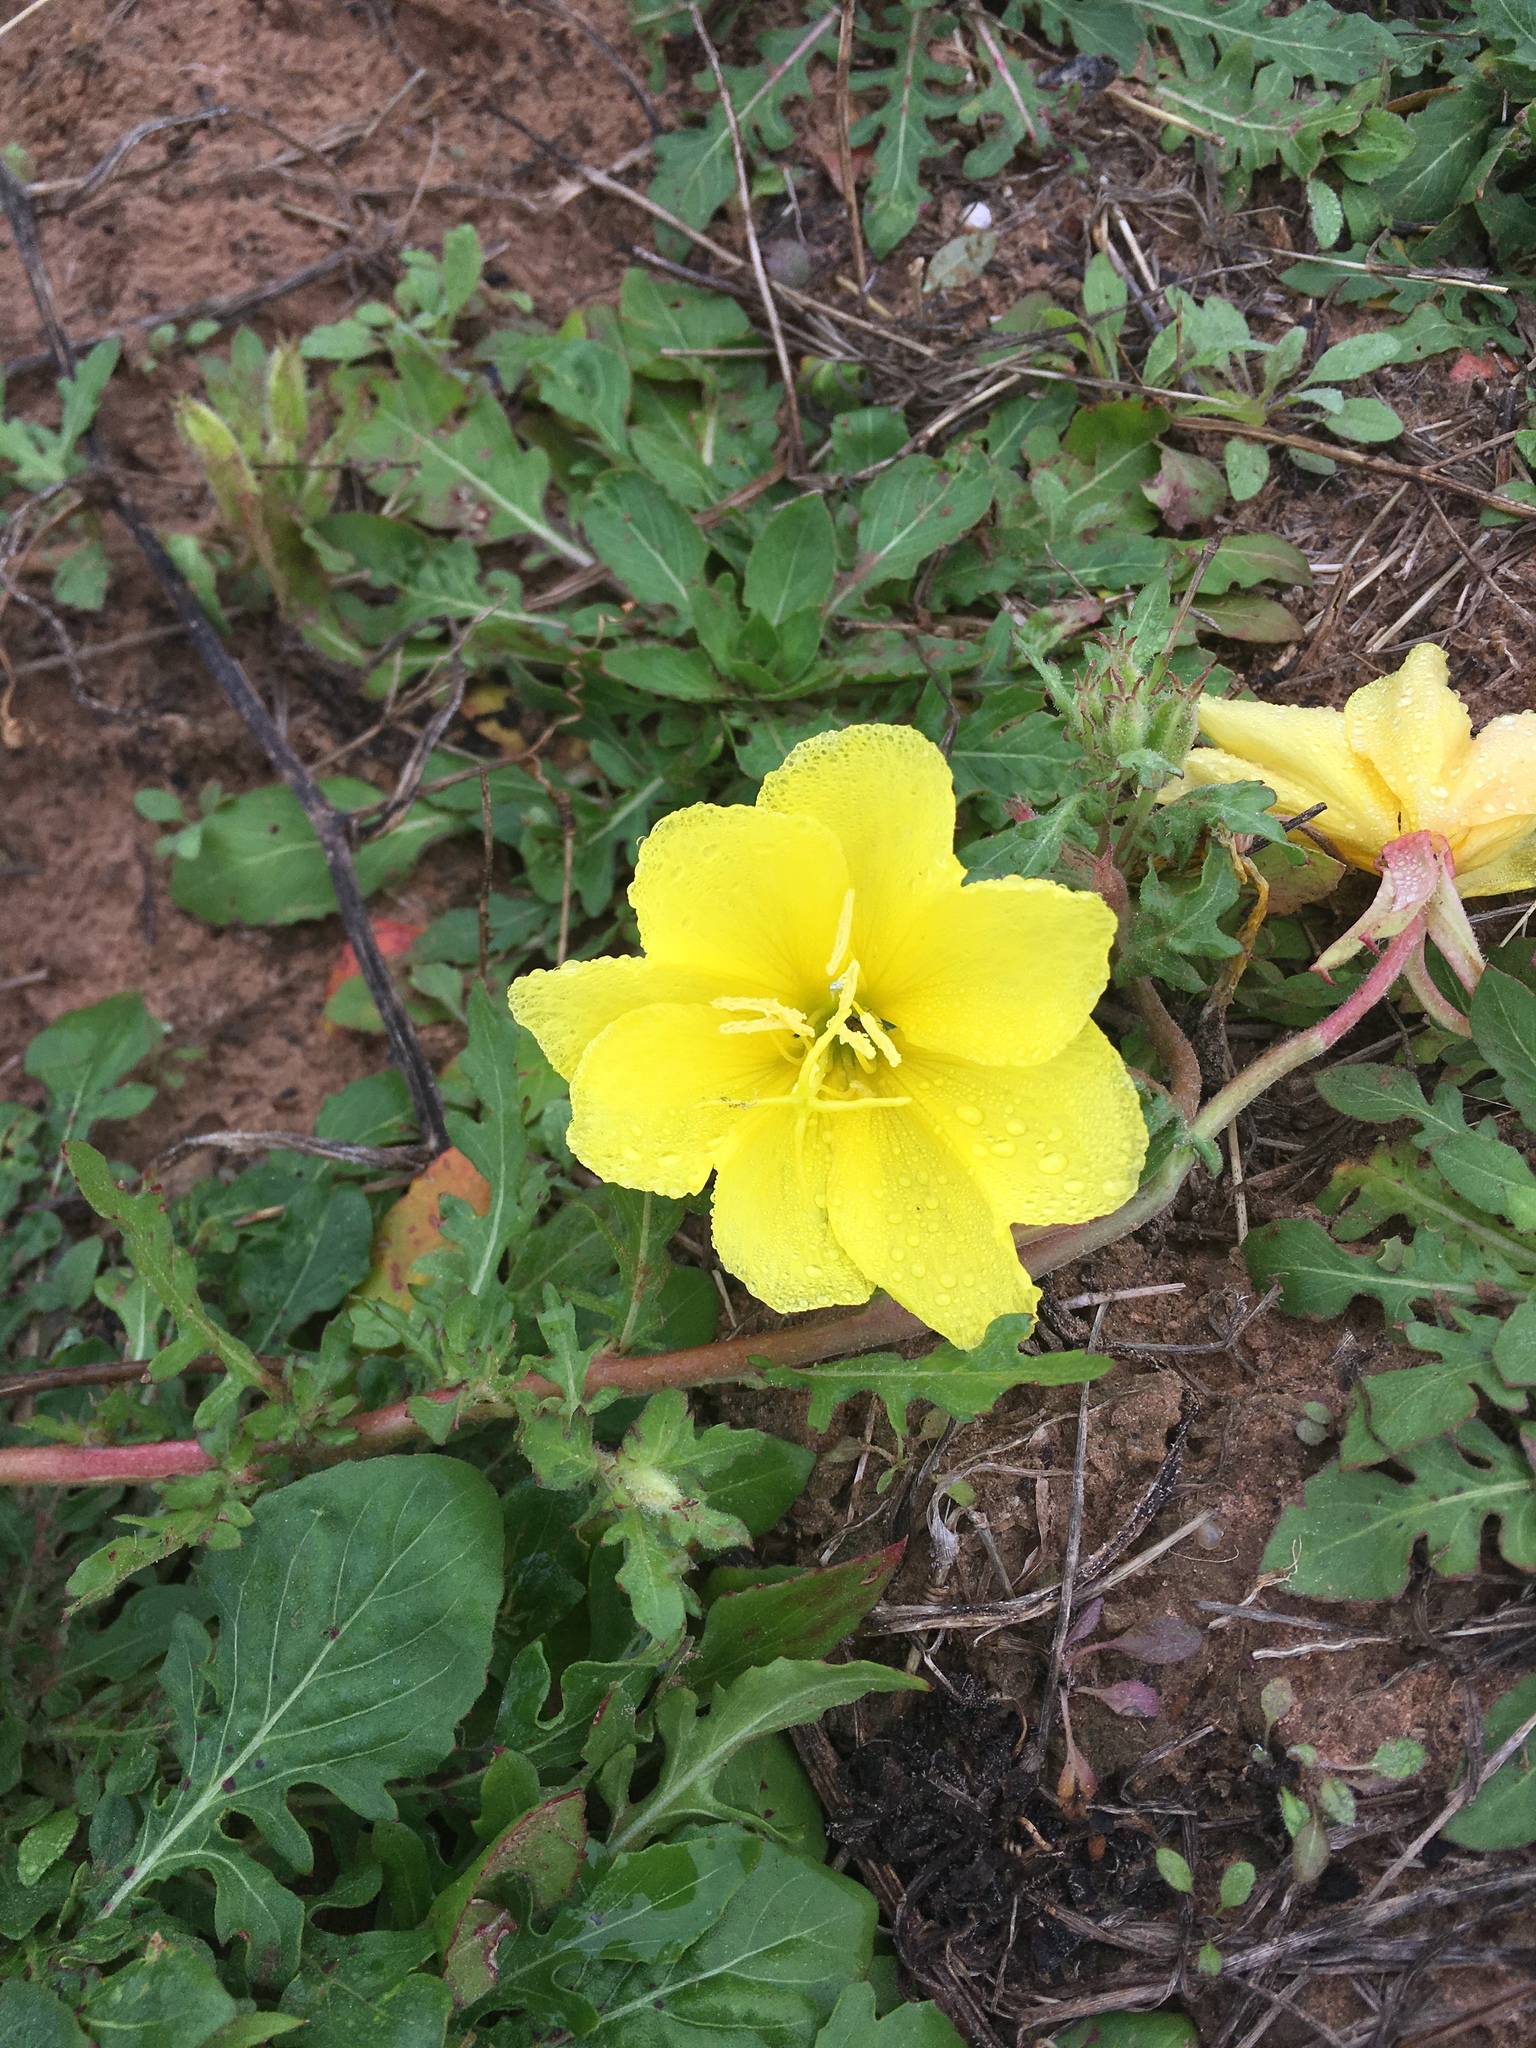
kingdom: Plantae
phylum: Tracheophyta
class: Magnoliopsida
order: Myrtales
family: Onagraceae
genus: Oenothera
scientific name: Oenothera laciniata
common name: Cut-leaved evening-primrose
